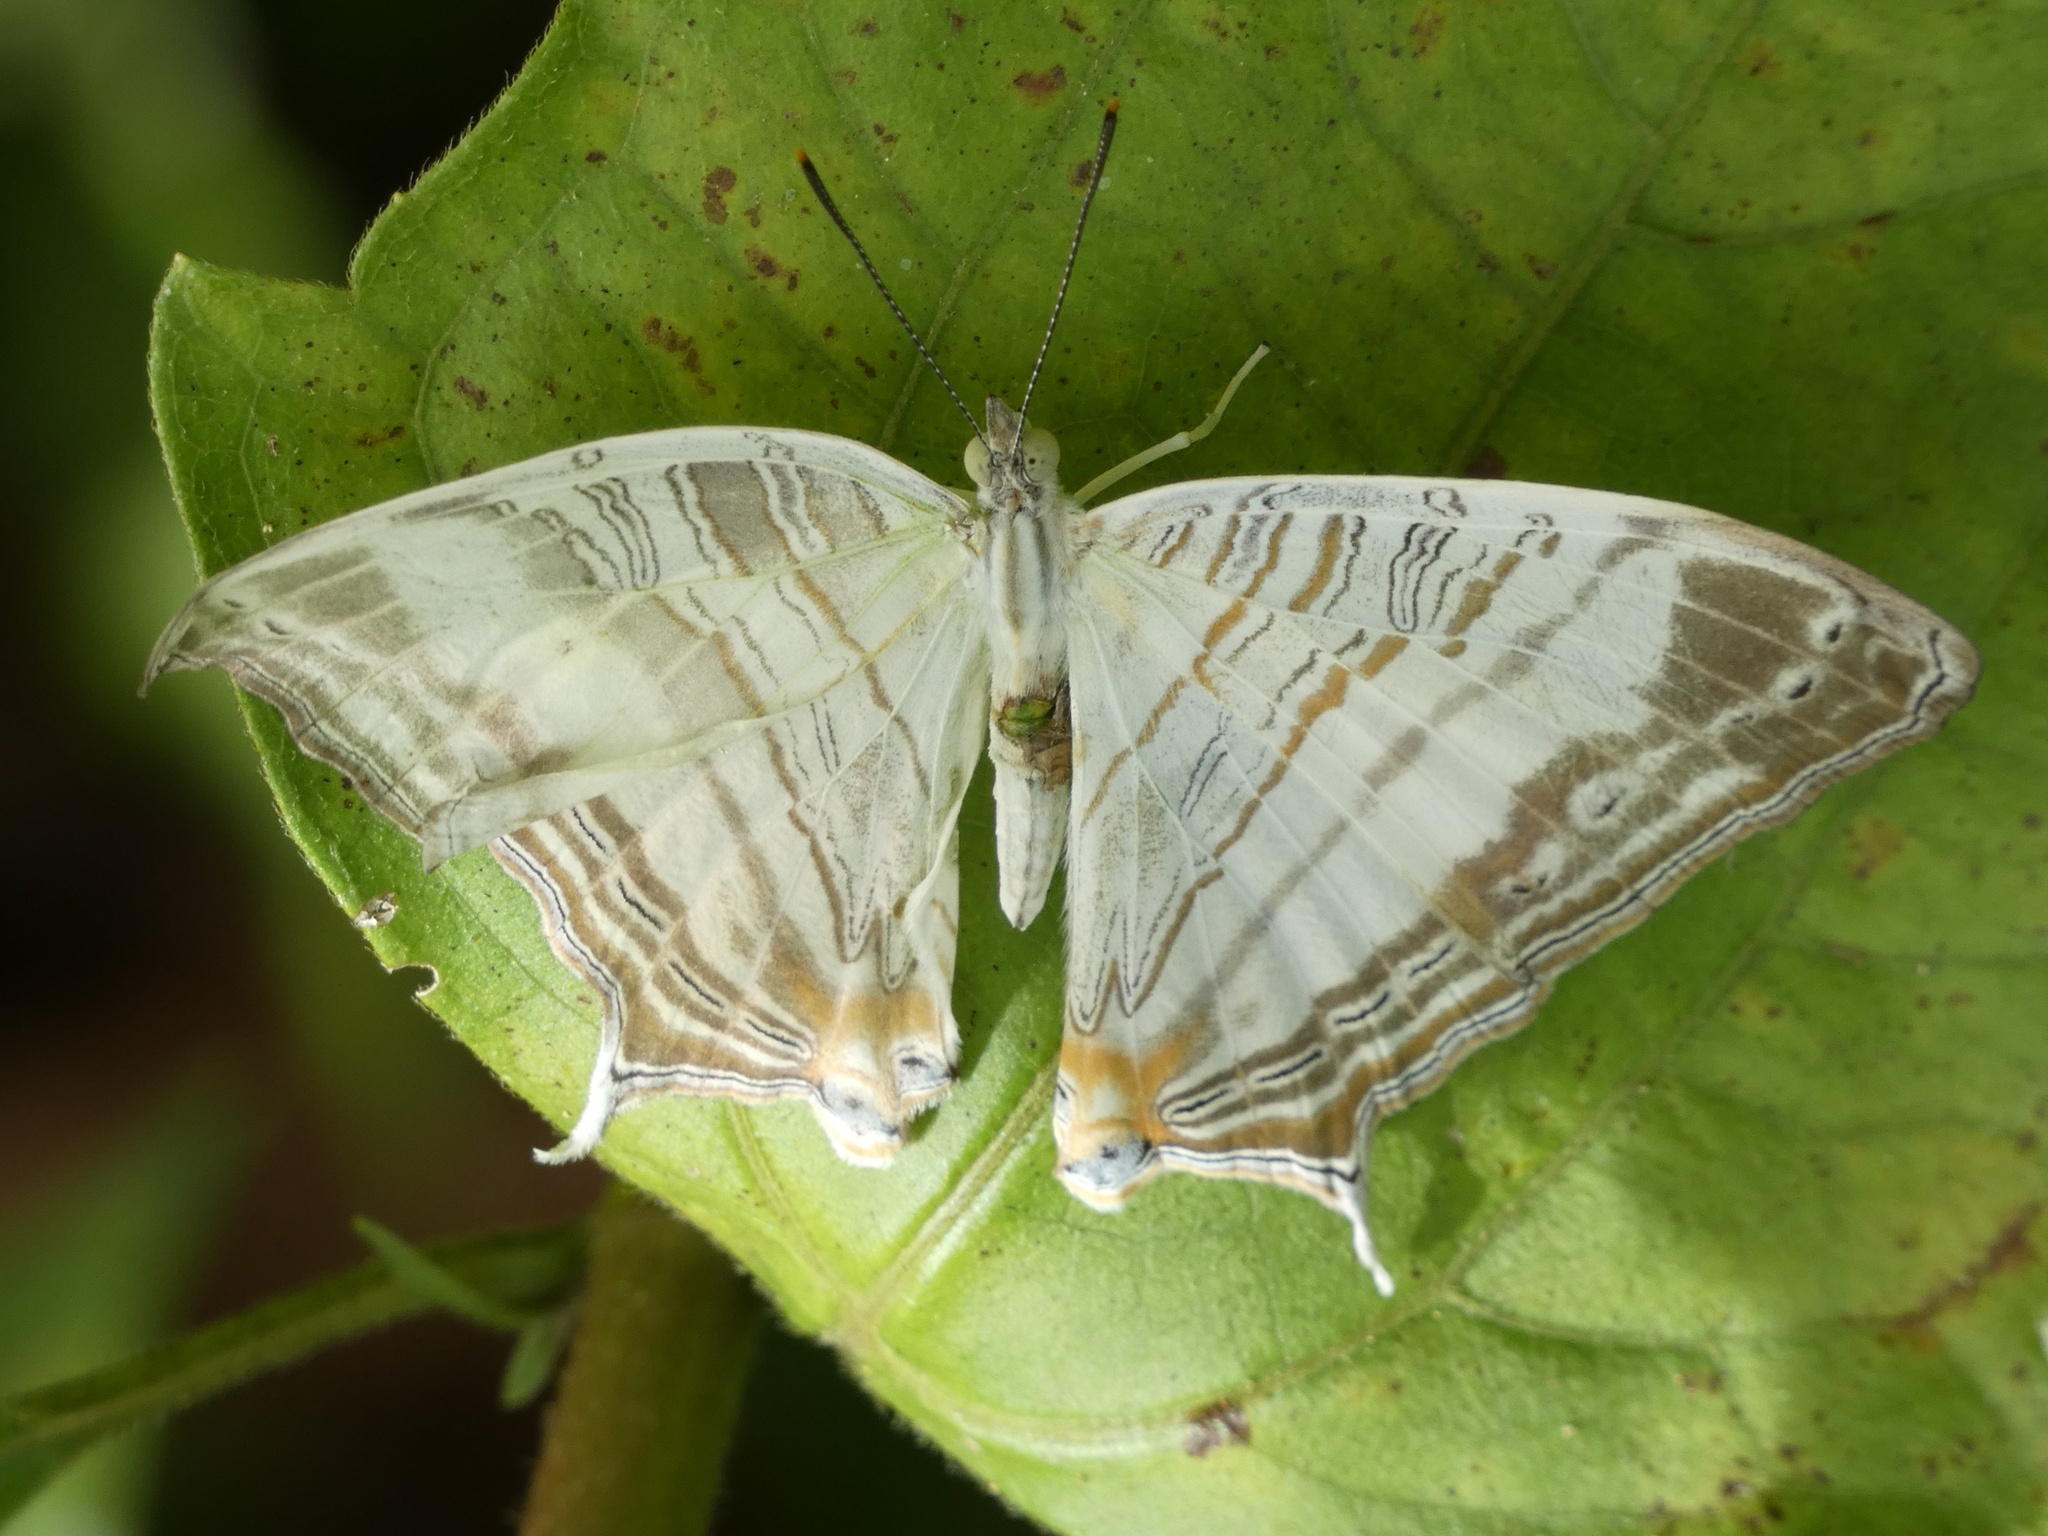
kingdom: Animalia
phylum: Arthropoda
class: Insecta
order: Lepidoptera
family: Nymphalidae
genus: Cyrestis
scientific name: Cyrestis cassander
